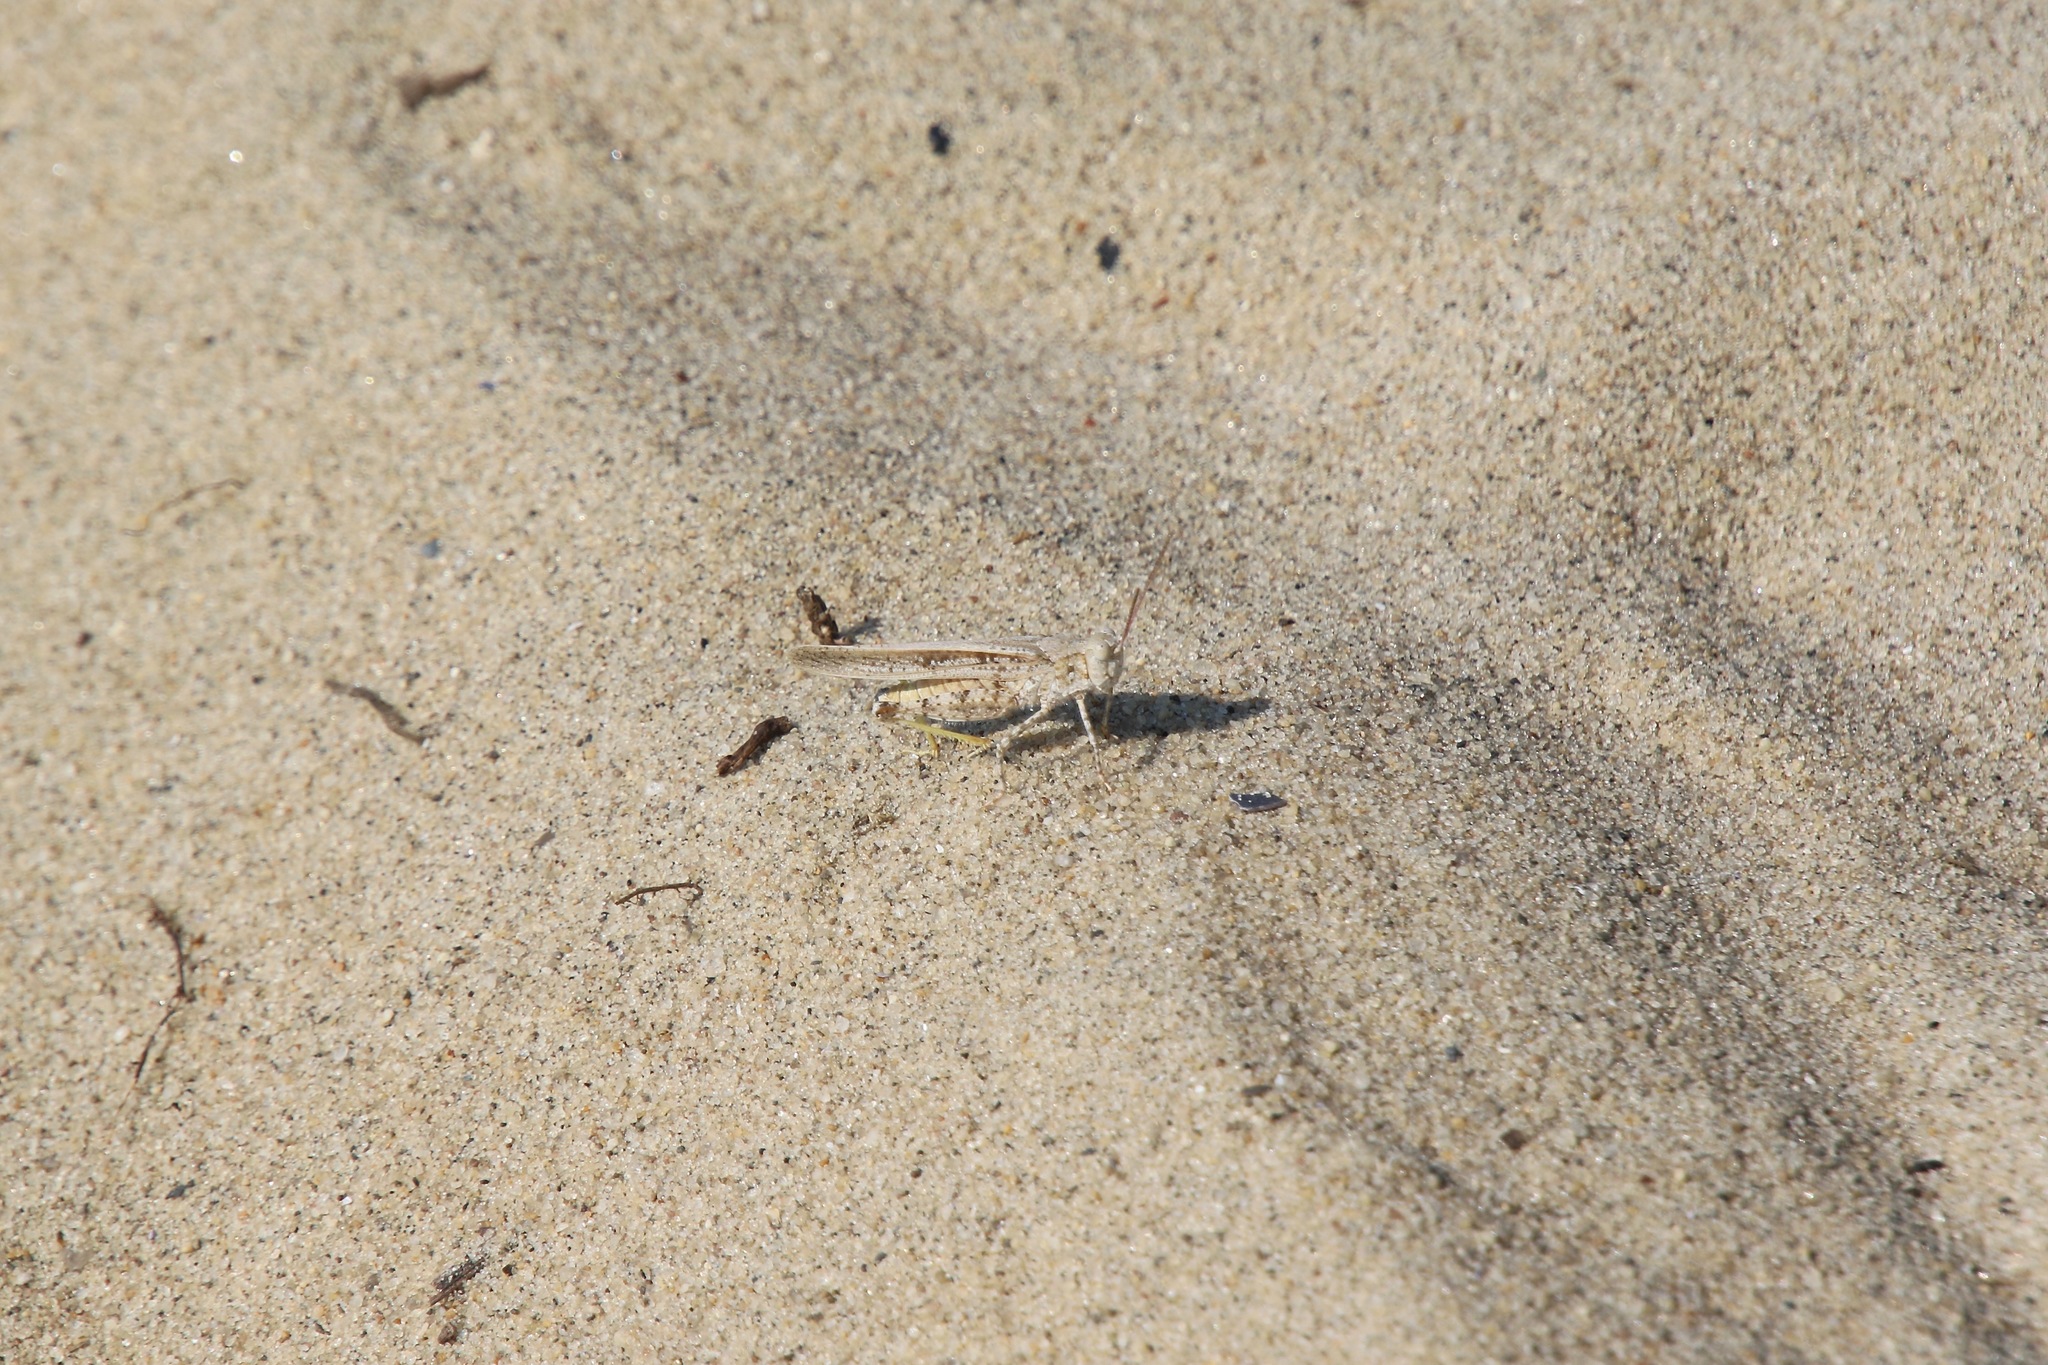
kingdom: Animalia
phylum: Arthropoda
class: Insecta
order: Orthoptera
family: Acrididae
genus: Trimerotropis
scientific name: Trimerotropis maritima
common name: Seaside locust
